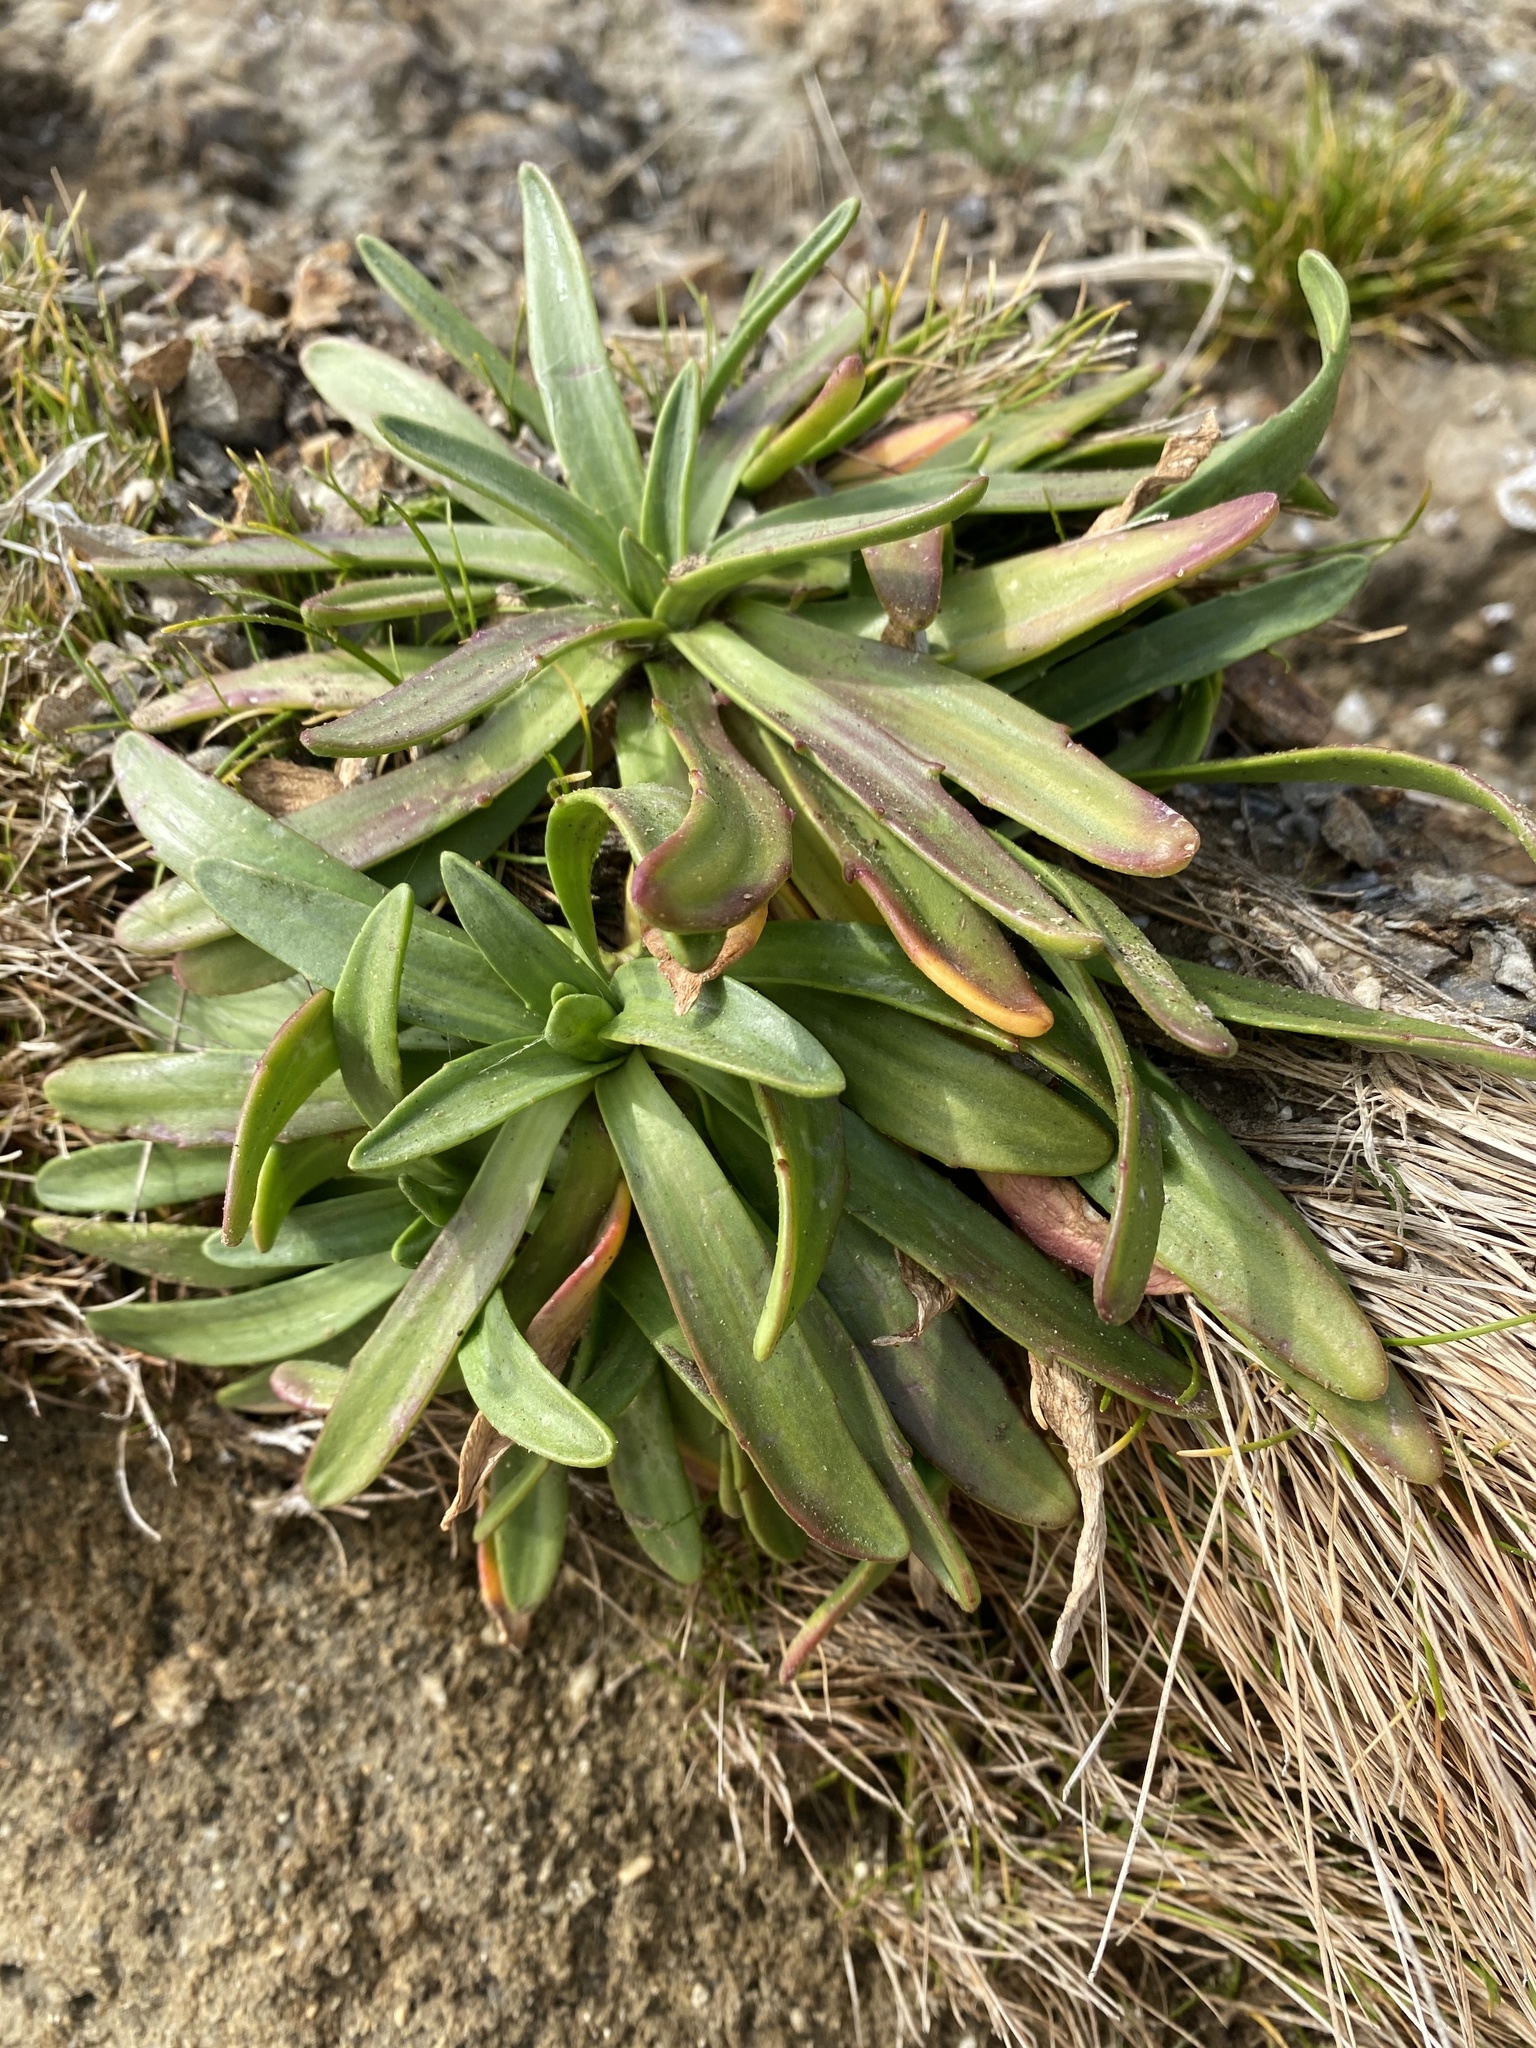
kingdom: Plantae
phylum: Tracheophyta
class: Magnoliopsida
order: Lamiales
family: Plantaginaceae
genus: Plantago
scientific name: Plantago maritima
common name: Sea plantain
